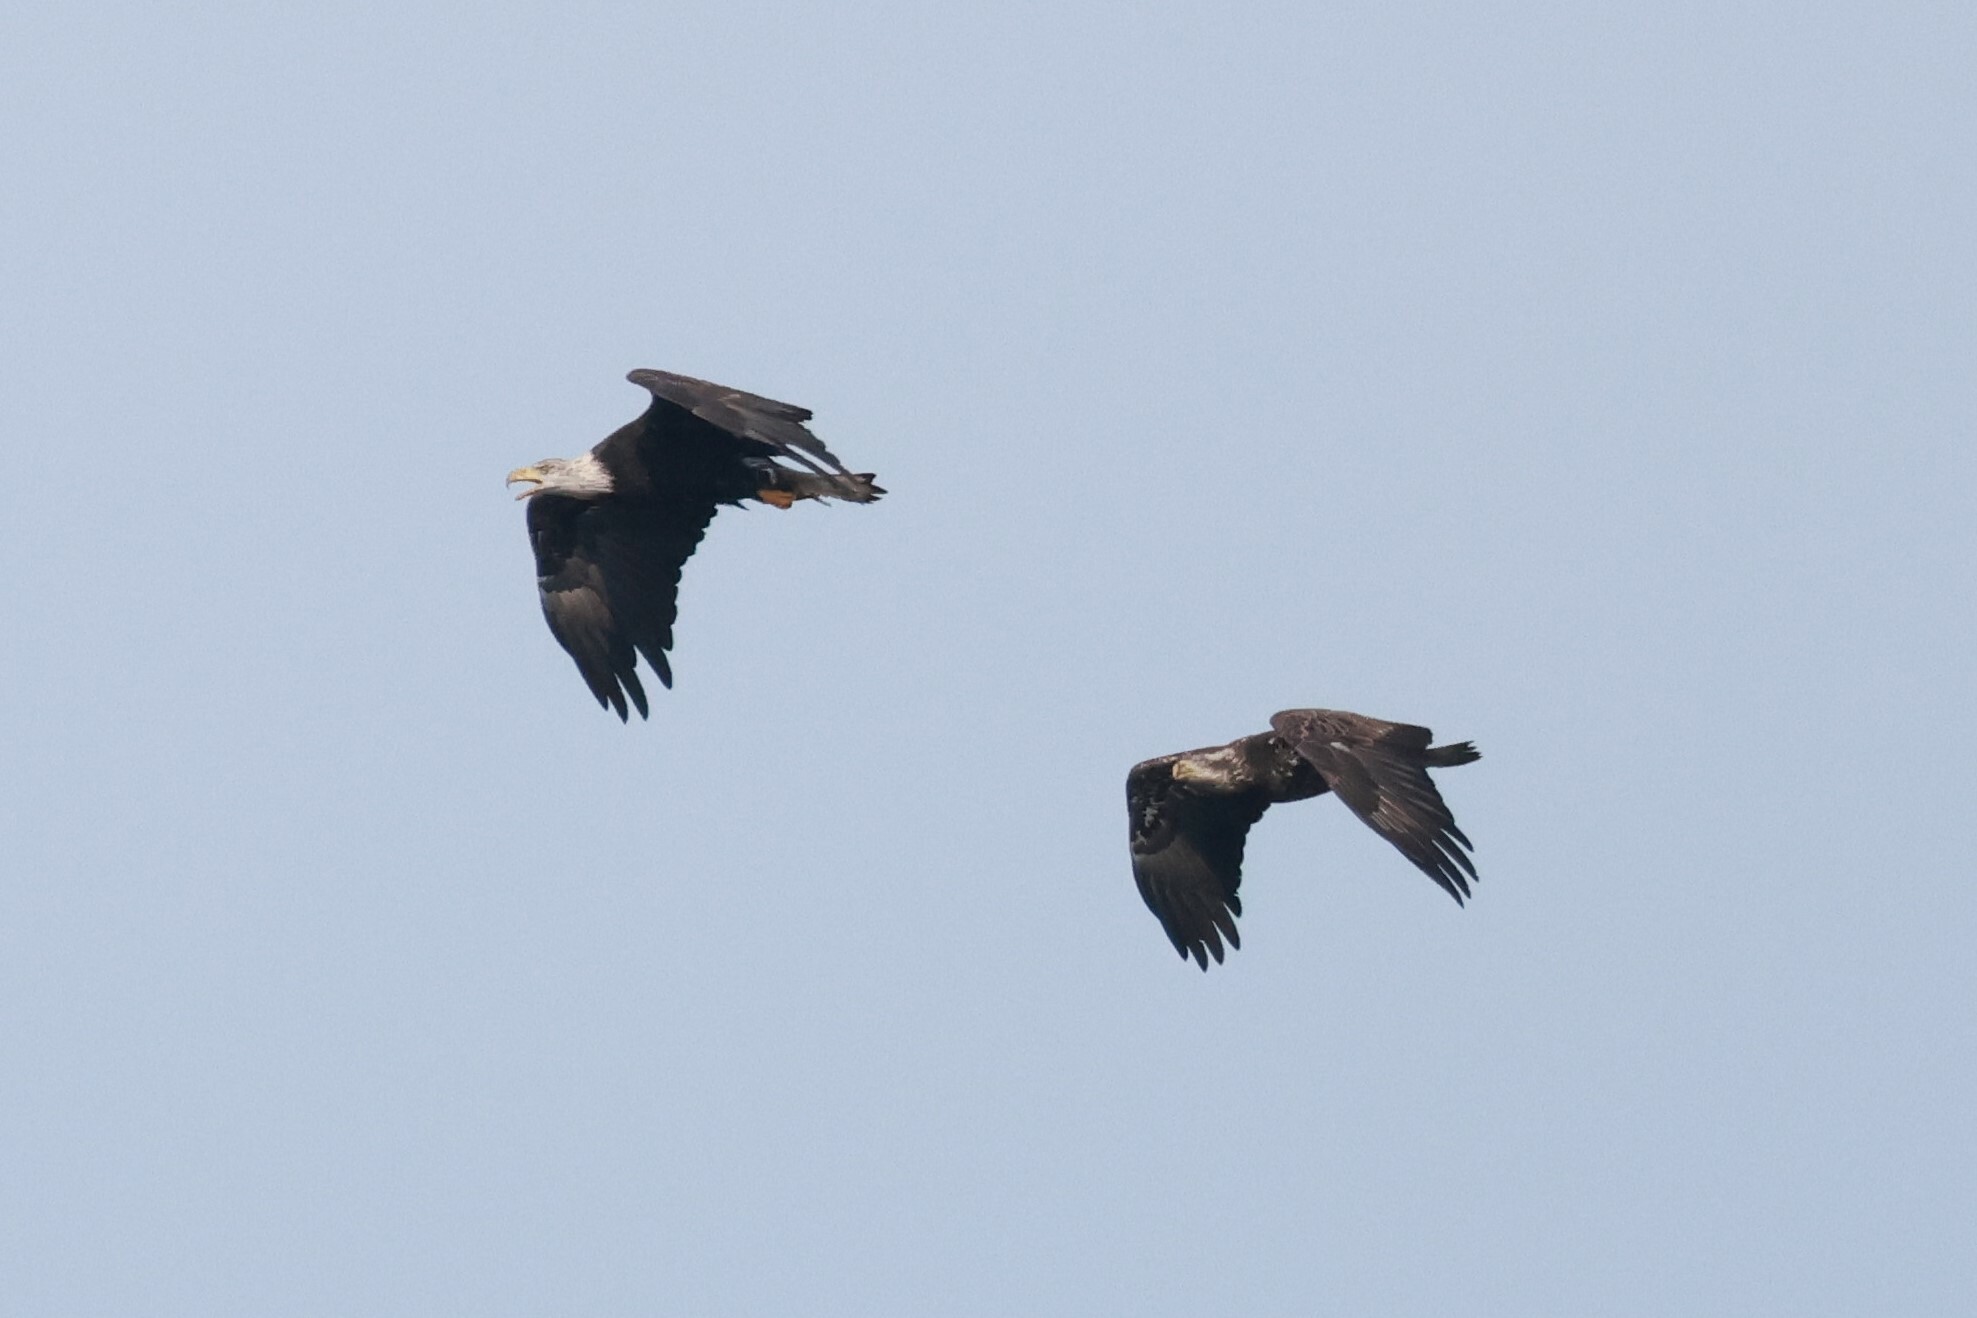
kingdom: Animalia
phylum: Chordata
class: Aves
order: Accipitriformes
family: Accipitridae
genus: Haliaeetus
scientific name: Haliaeetus leucocephalus
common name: Bald eagle
